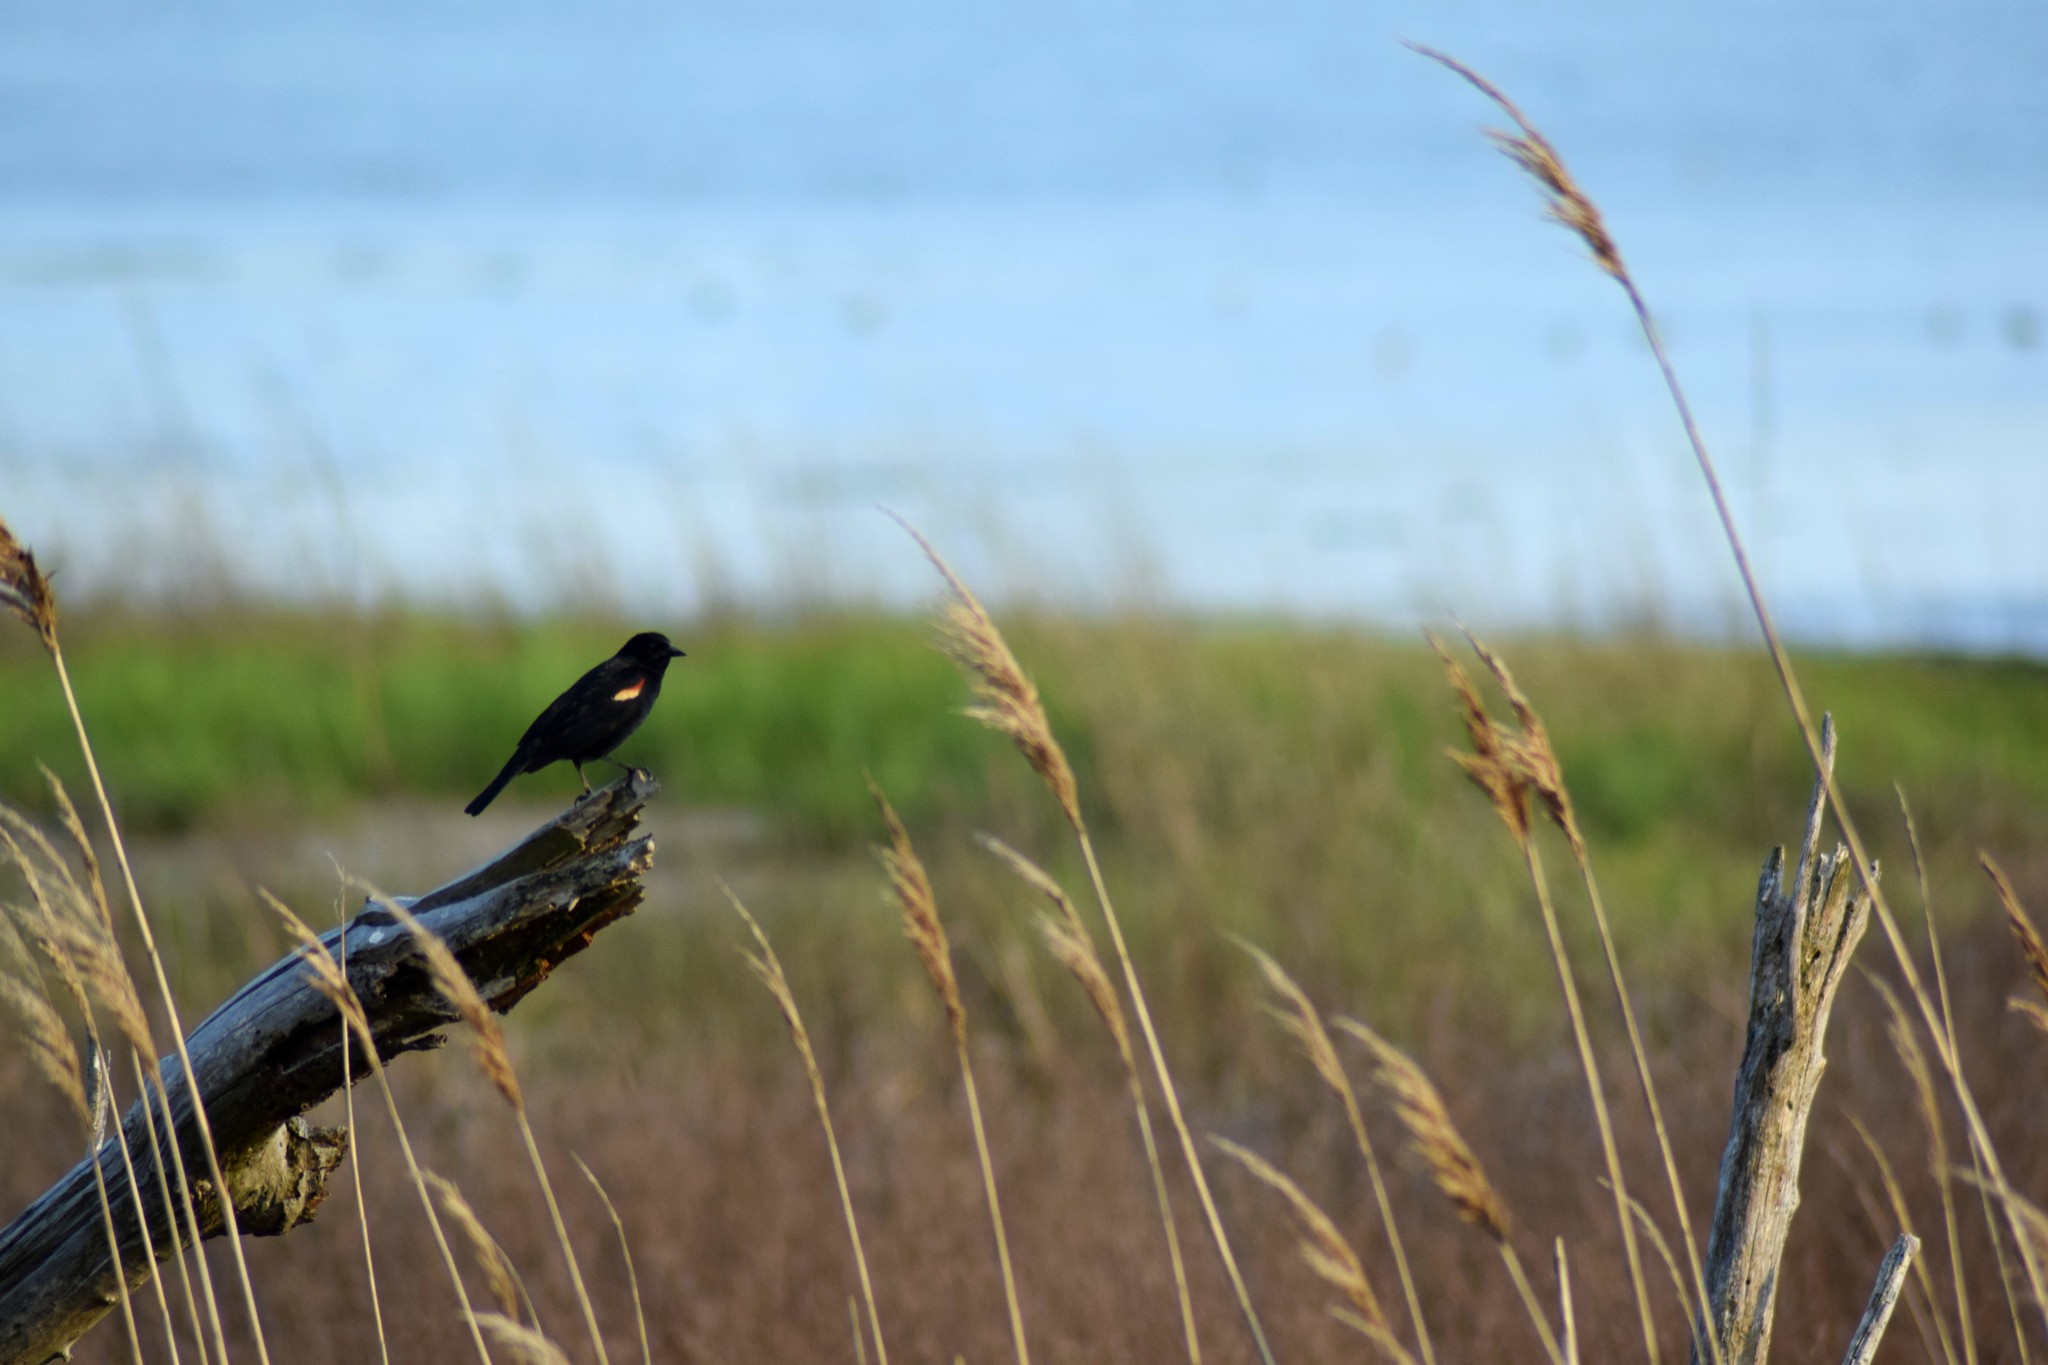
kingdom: Animalia
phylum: Chordata
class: Aves
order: Passeriformes
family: Icteridae
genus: Agelaius
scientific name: Agelaius phoeniceus
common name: Red-winged blackbird
